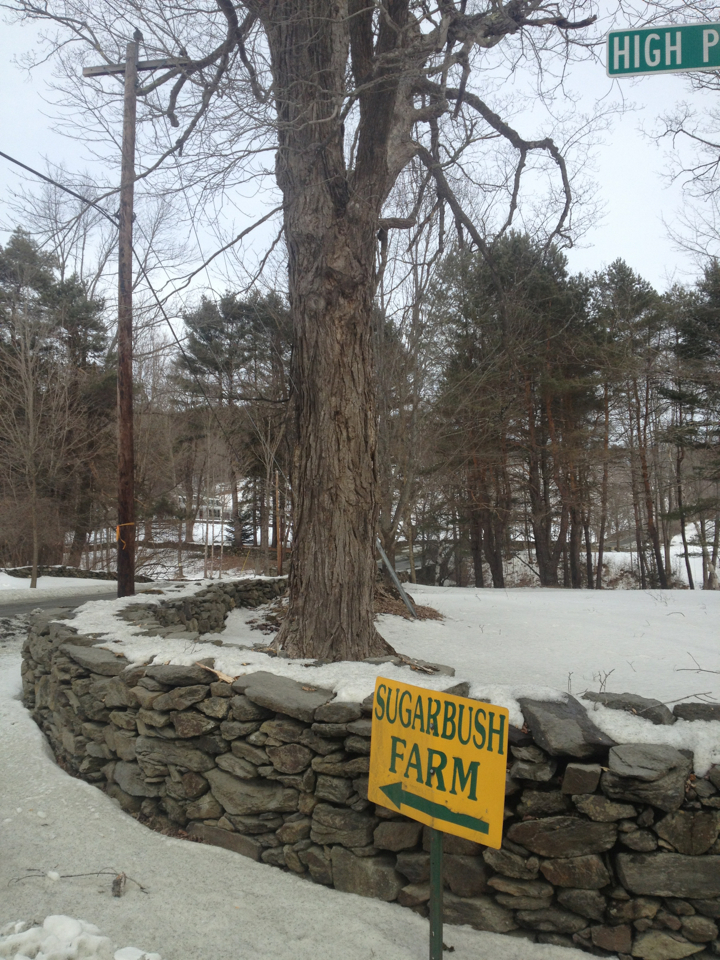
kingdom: Plantae
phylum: Tracheophyta
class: Magnoliopsida
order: Sapindales
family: Sapindaceae
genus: Acer
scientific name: Acer saccharum
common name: Sugar maple
